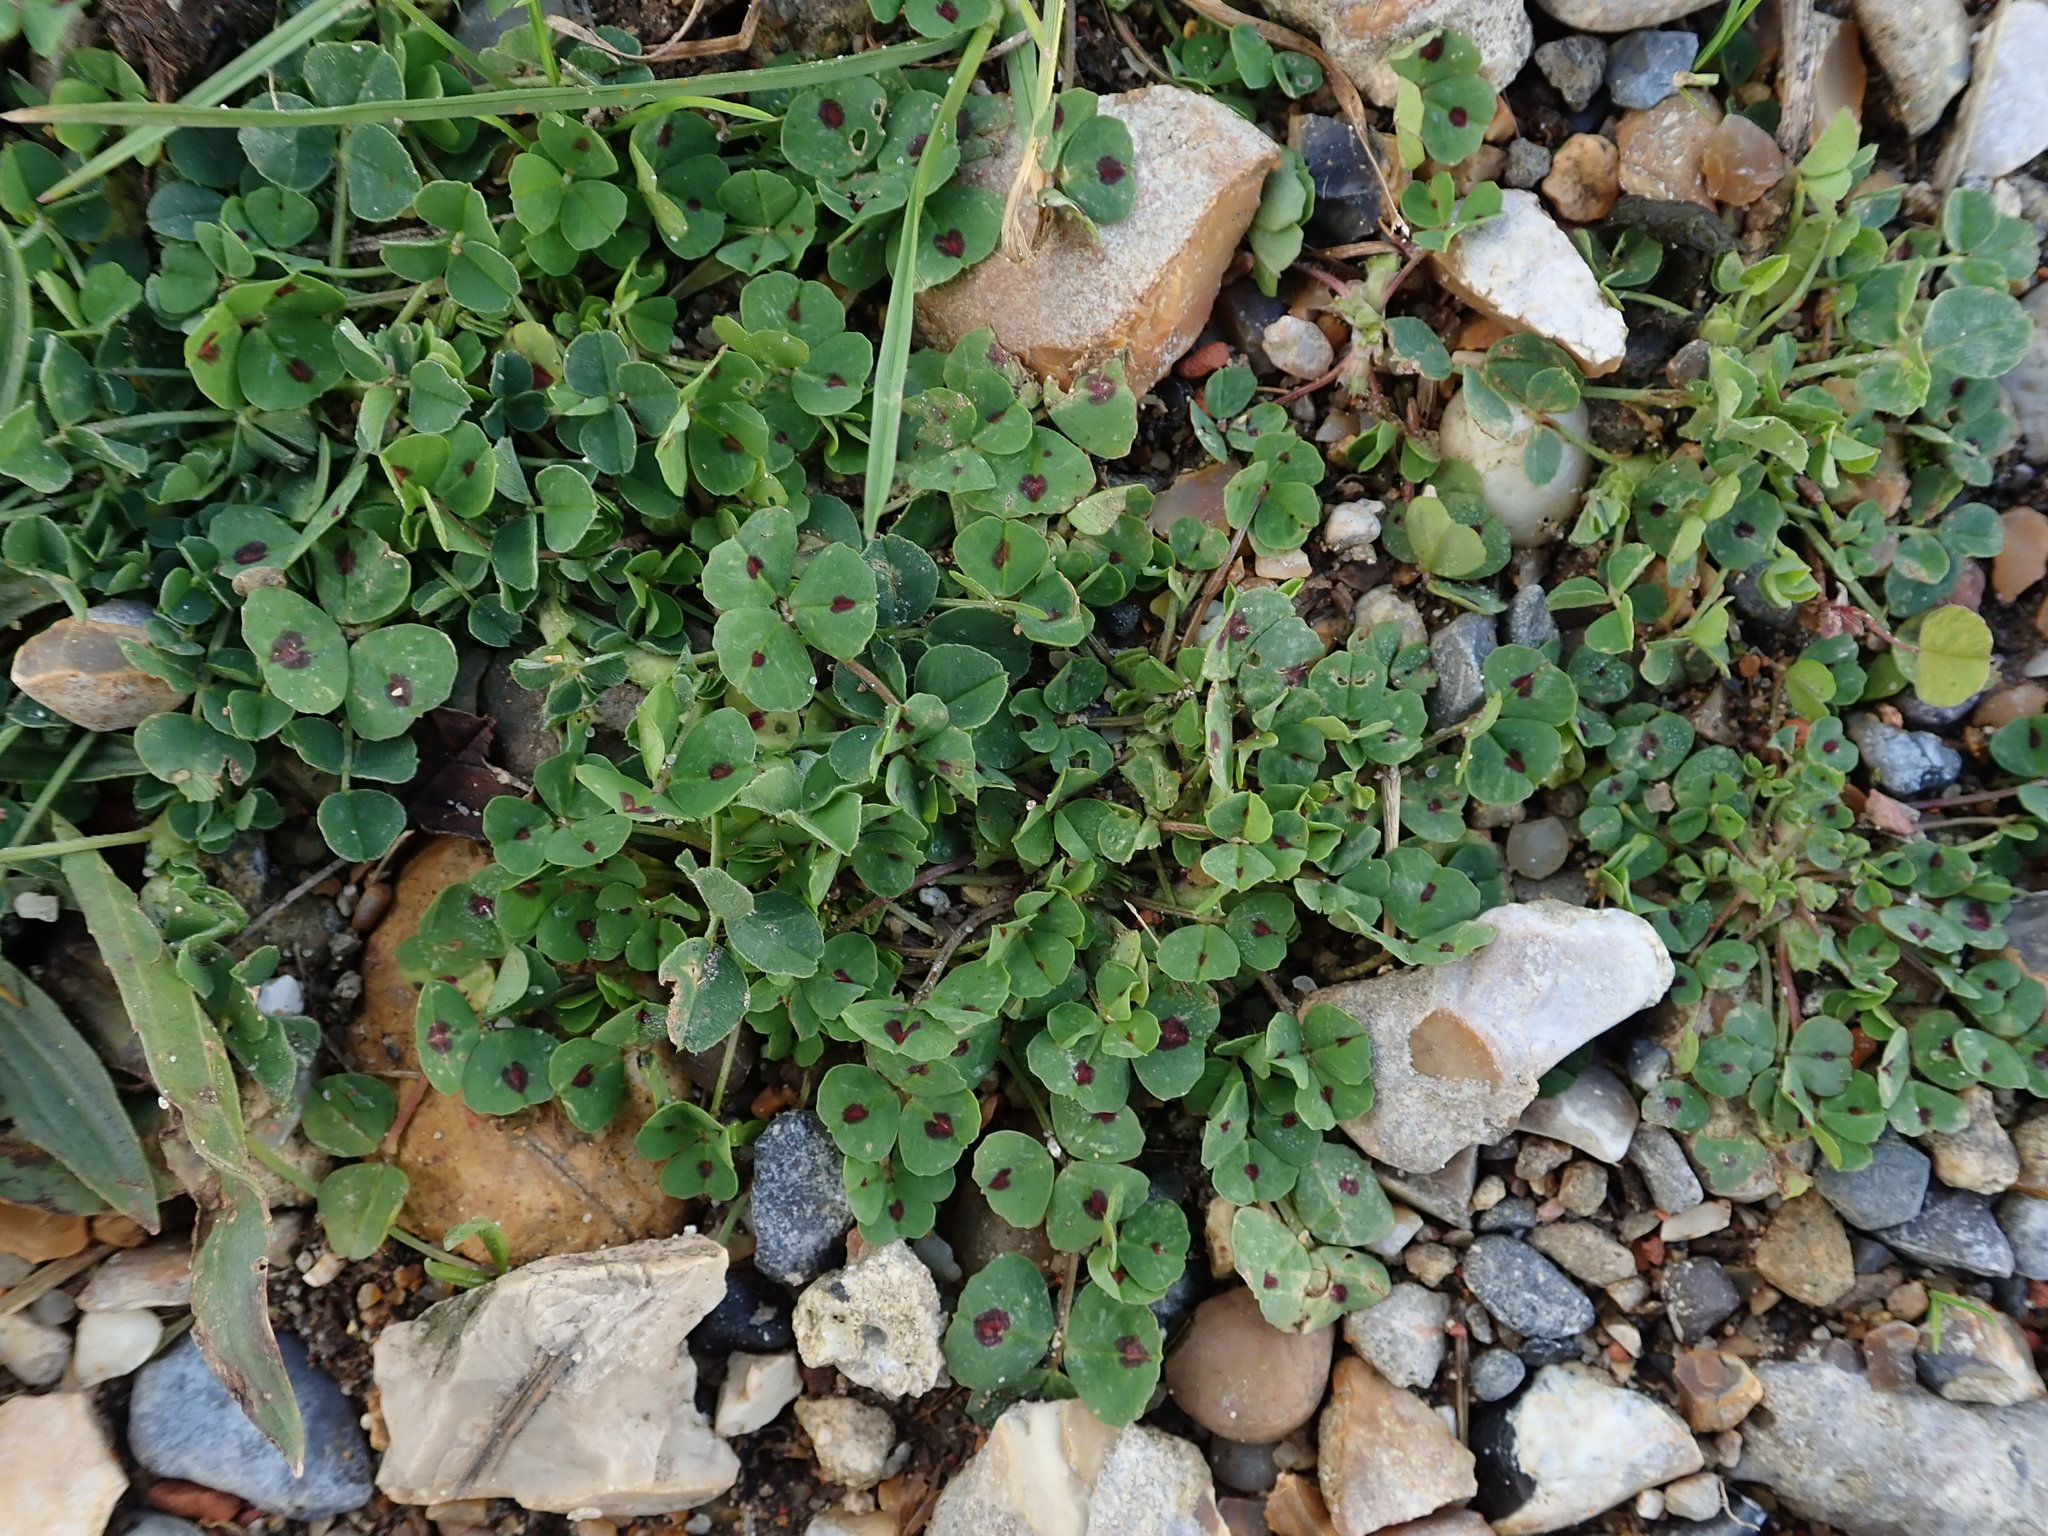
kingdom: Plantae
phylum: Tracheophyta
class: Magnoliopsida
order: Fabales
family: Fabaceae
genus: Medicago
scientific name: Medicago arabica
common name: Spotted medick
